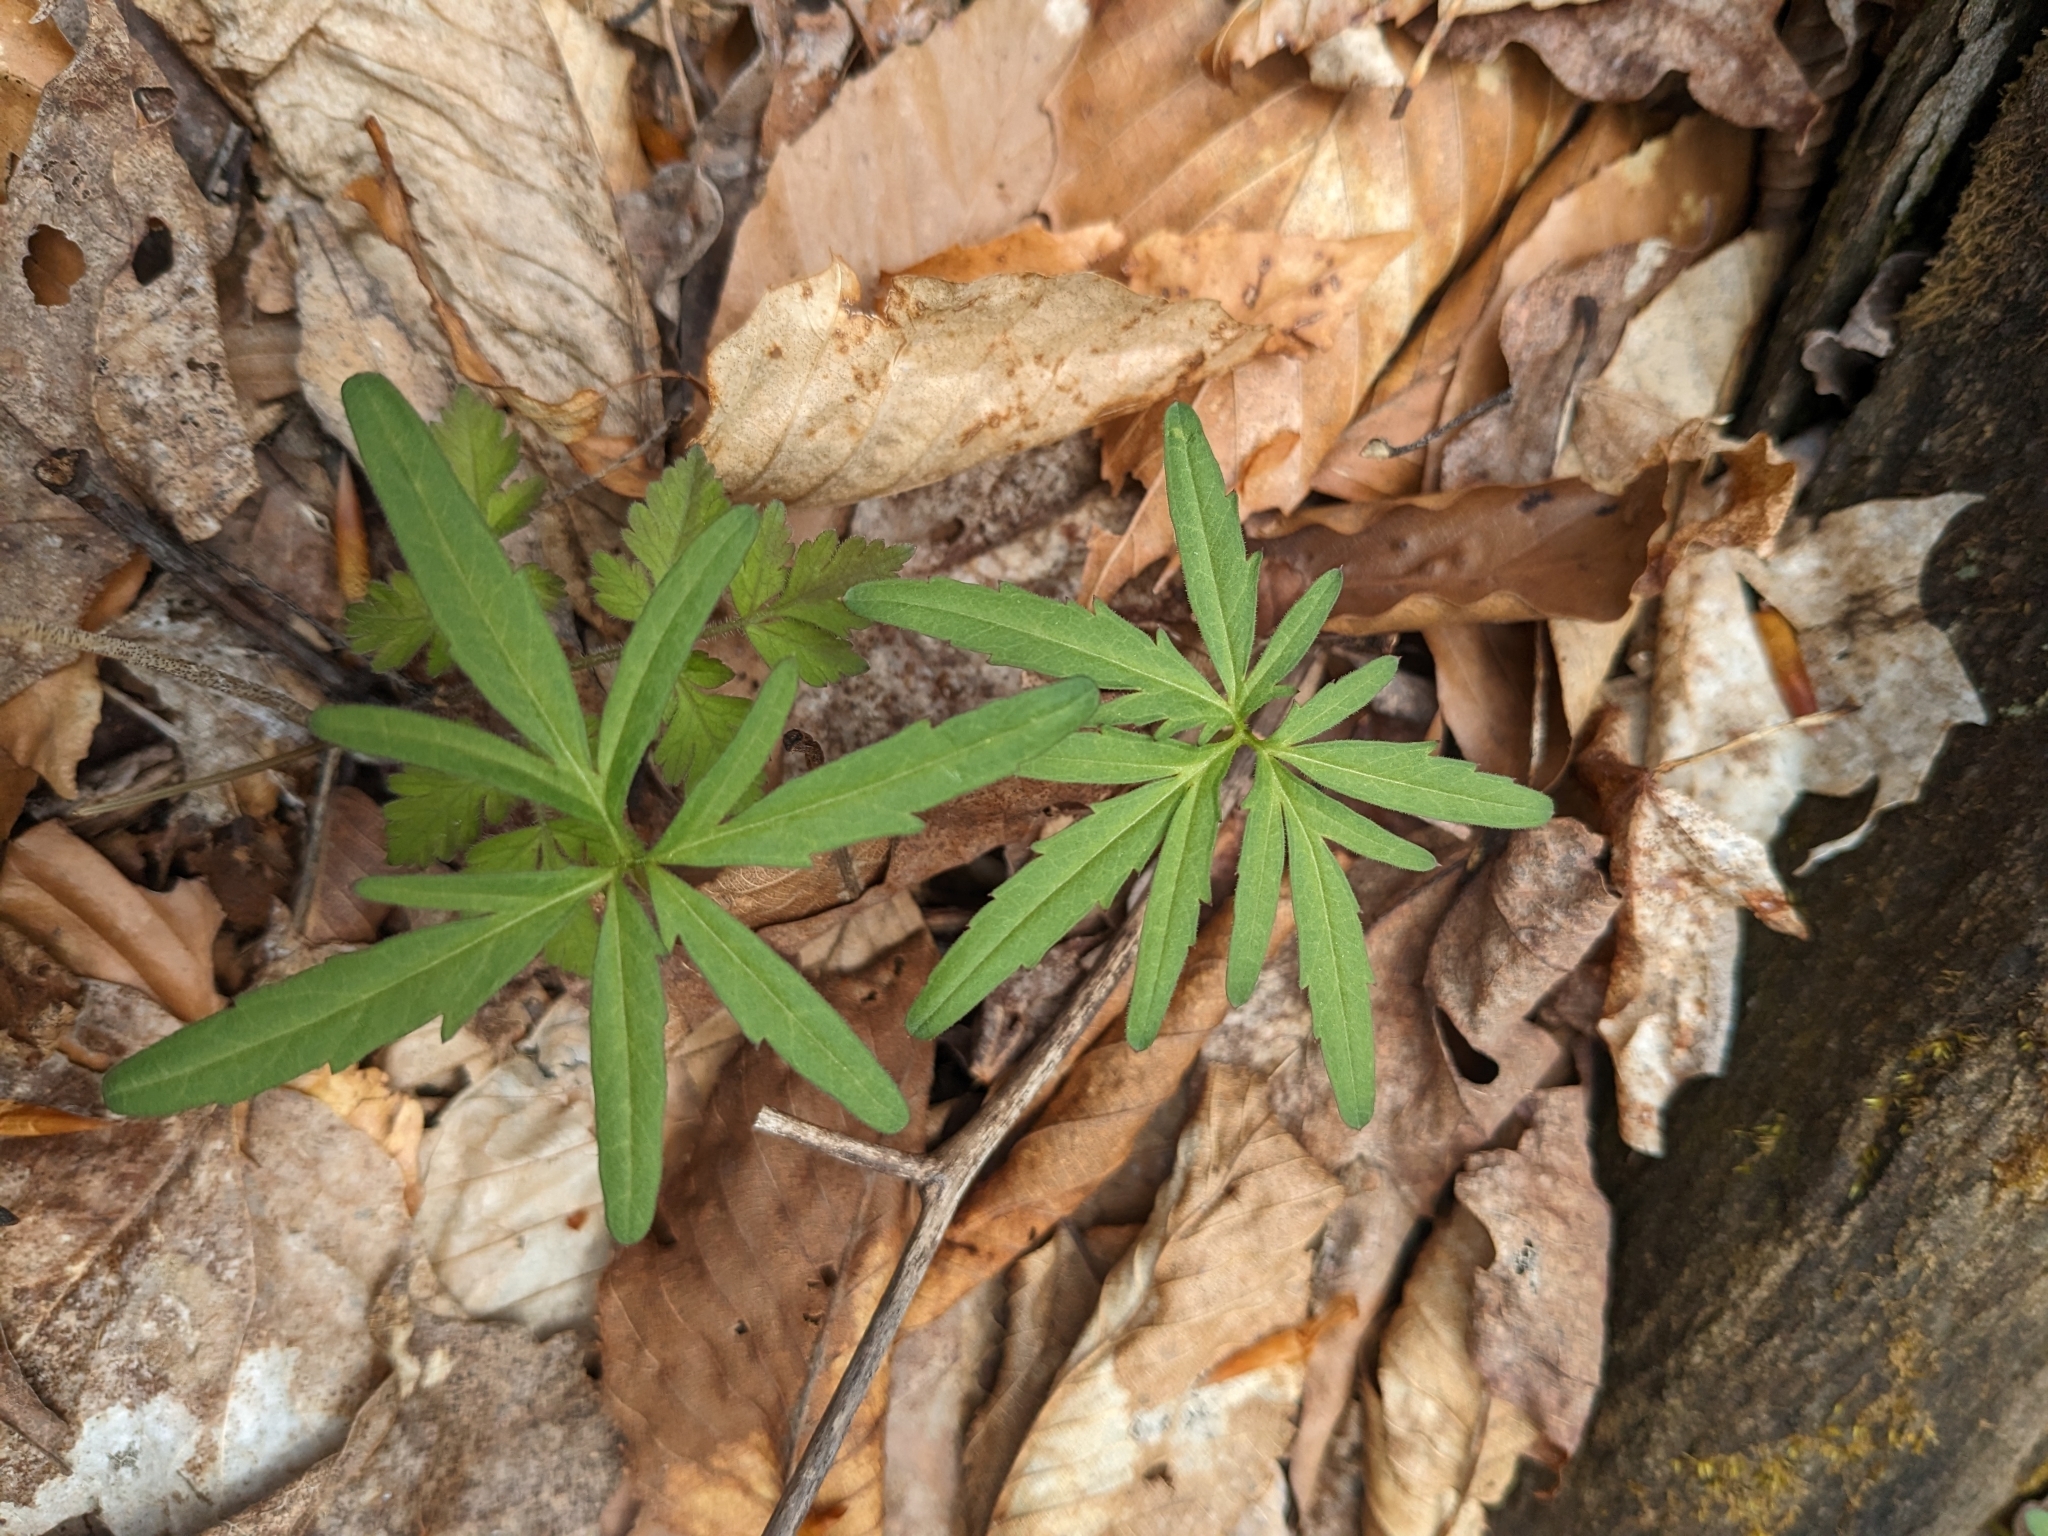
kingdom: Plantae
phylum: Tracheophyta
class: Magnoliopsida
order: Brassicales
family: Brassicaceae
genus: Cardamine
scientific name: Cardamine concatenata
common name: Cut-leaf toothcup
